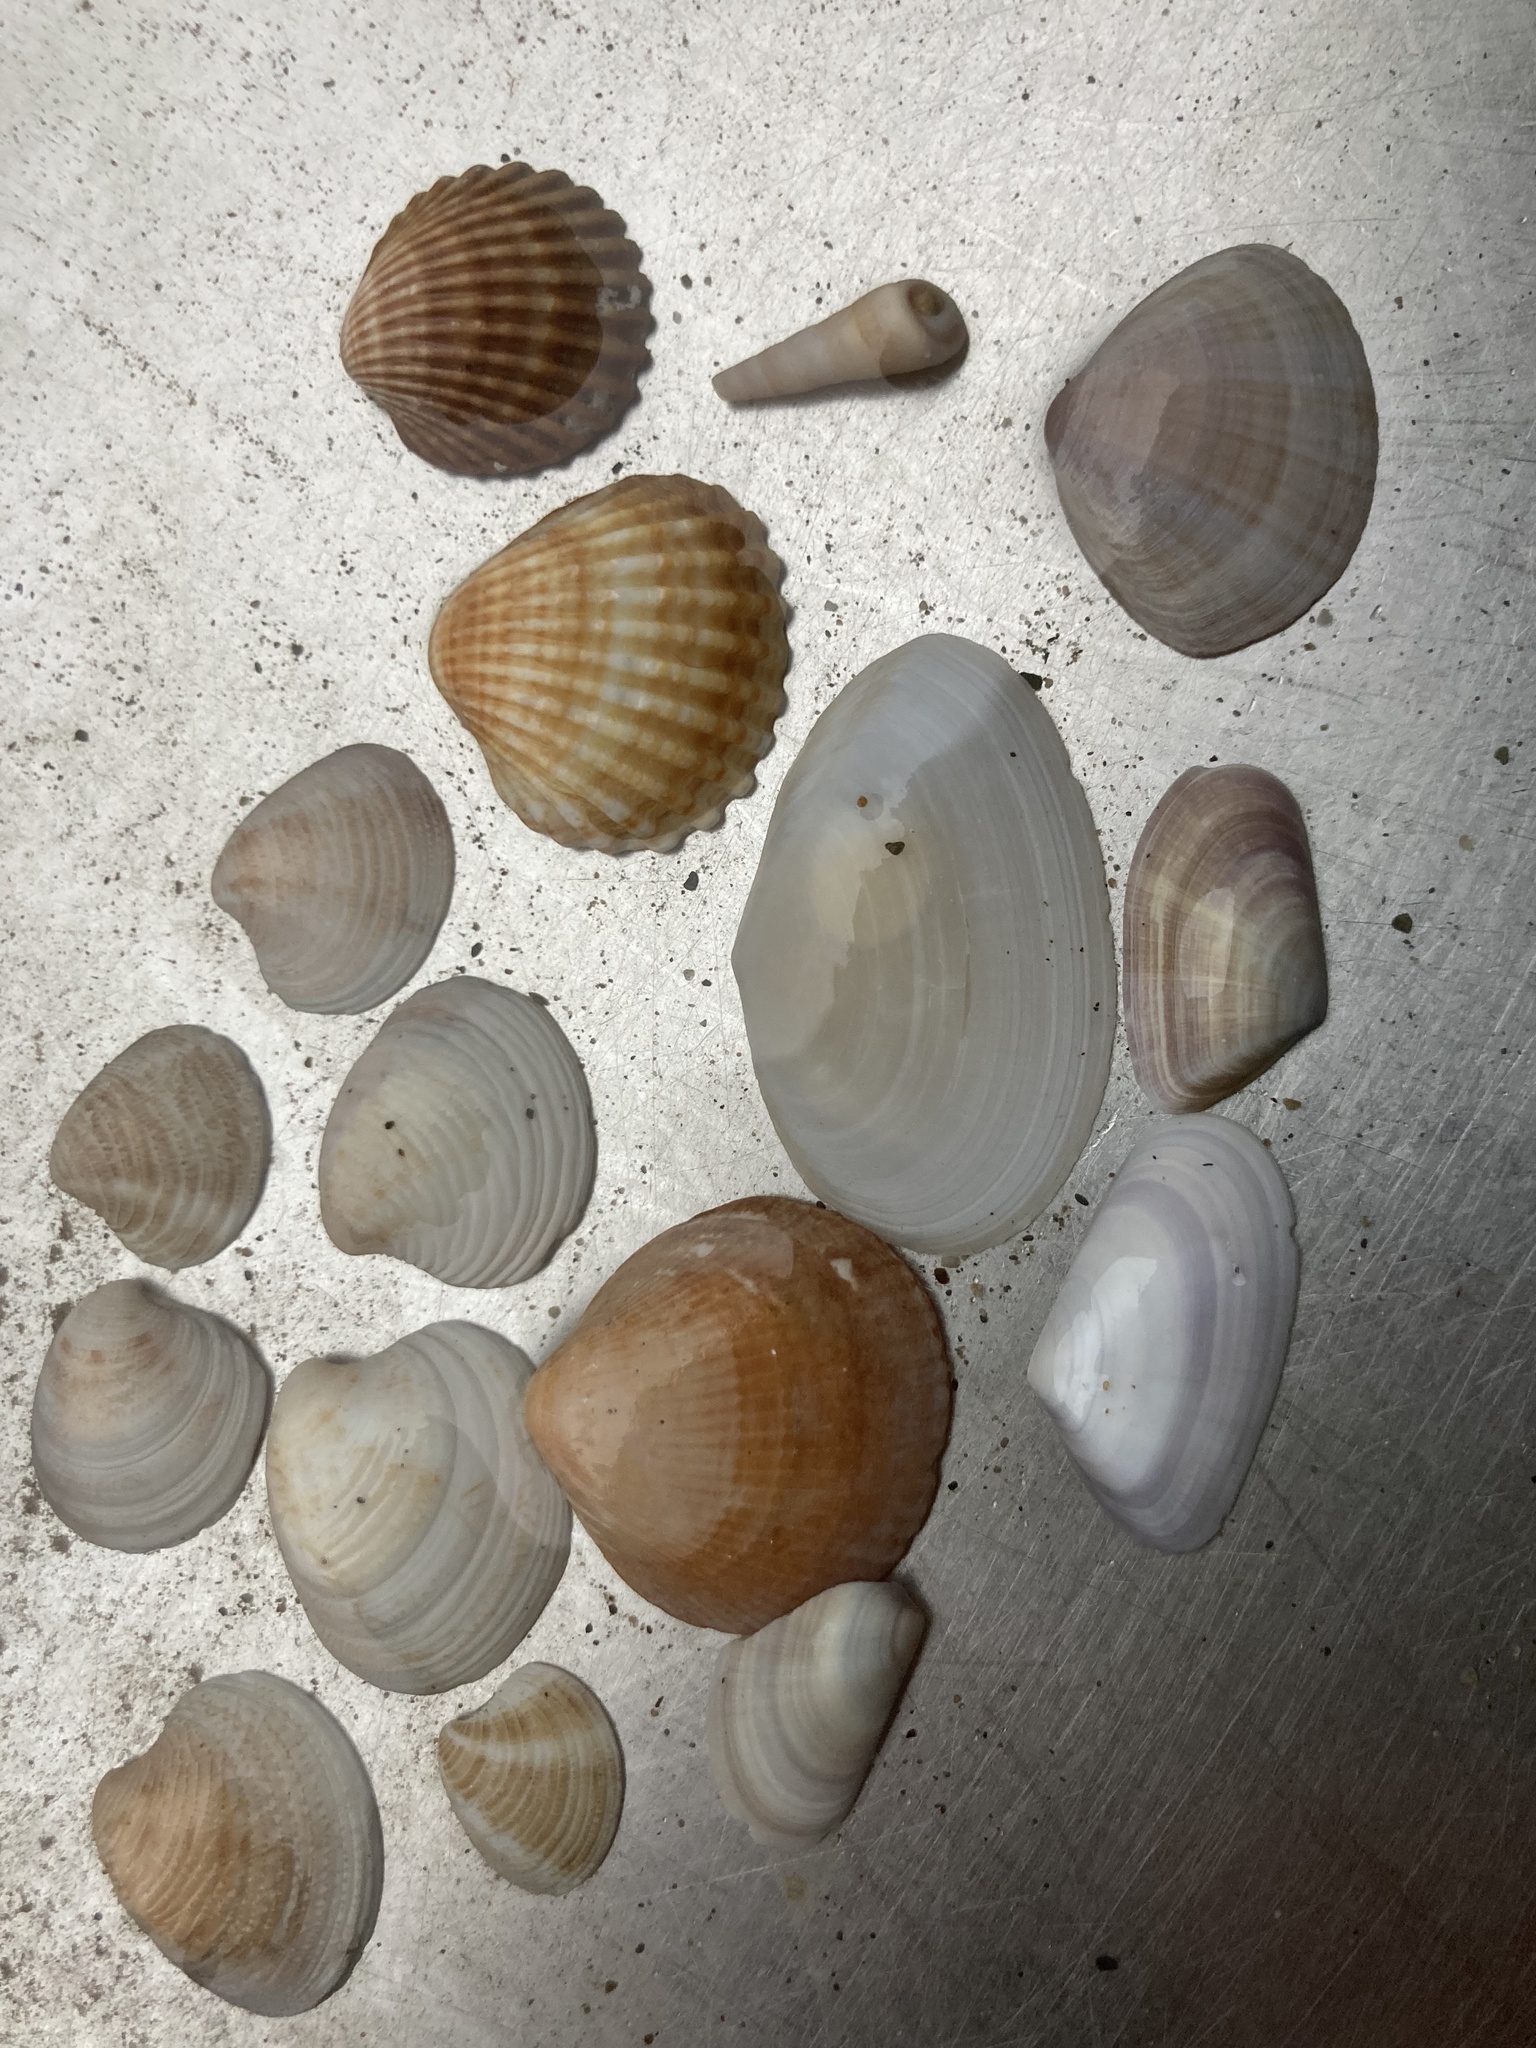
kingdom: Animalia
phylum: Mollusca
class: Bivalvia
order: Cardiida
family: Cardiidae
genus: Acanthocardia
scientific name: Acanthocardia tuberculata
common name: Rough cockle
